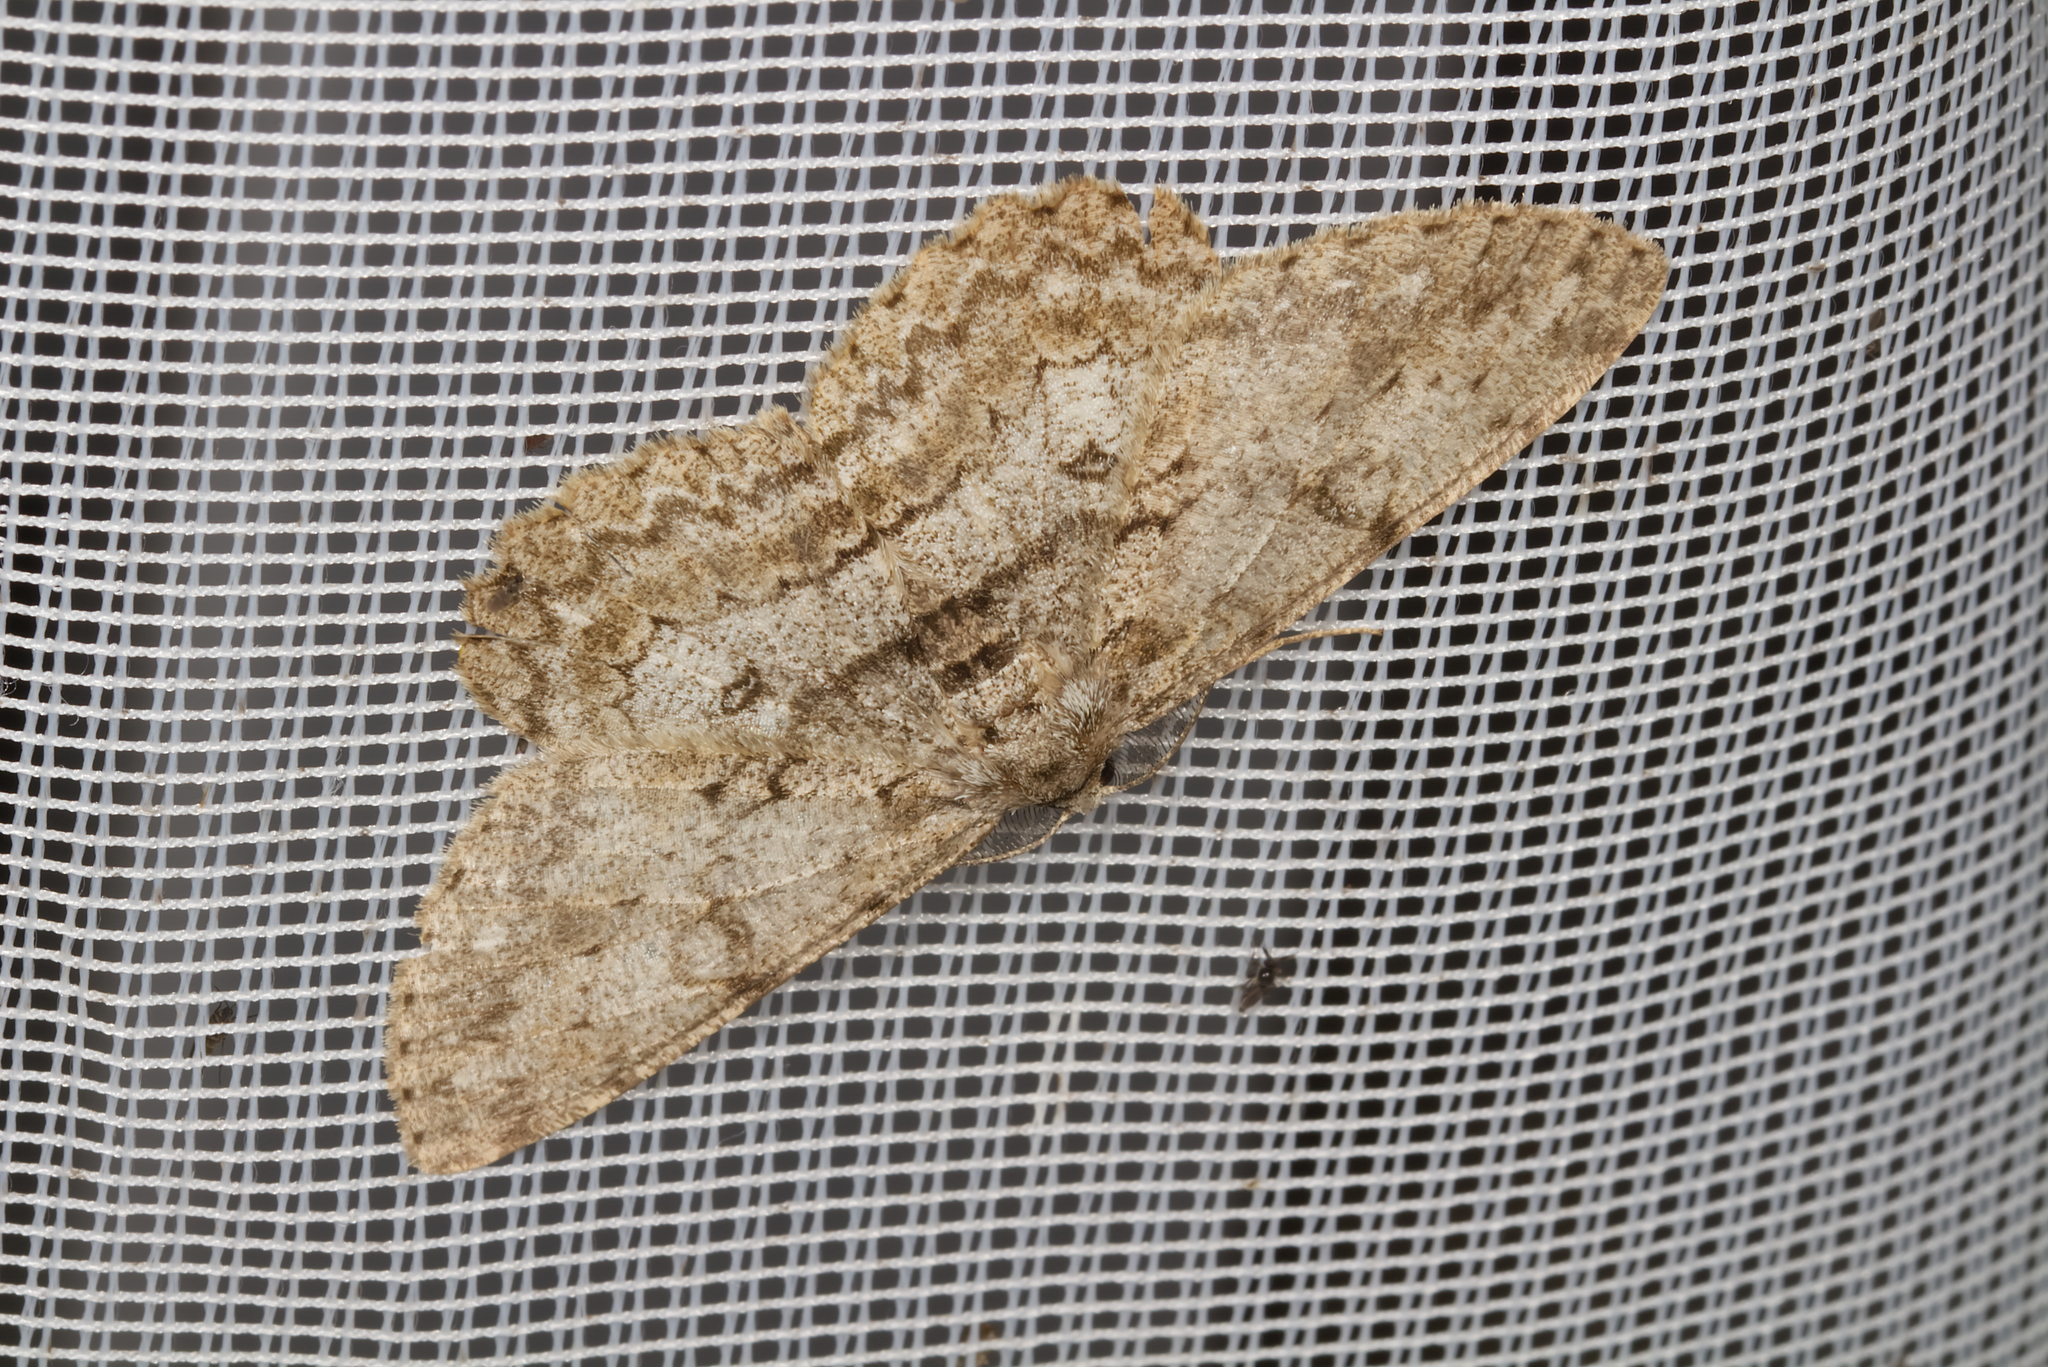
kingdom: Animalia
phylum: Arthropoda
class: Insecta
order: Lepidoptera
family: Geometridae
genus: Hypomecis
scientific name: Hypomecis punctinalis
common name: Pale oak beauty
